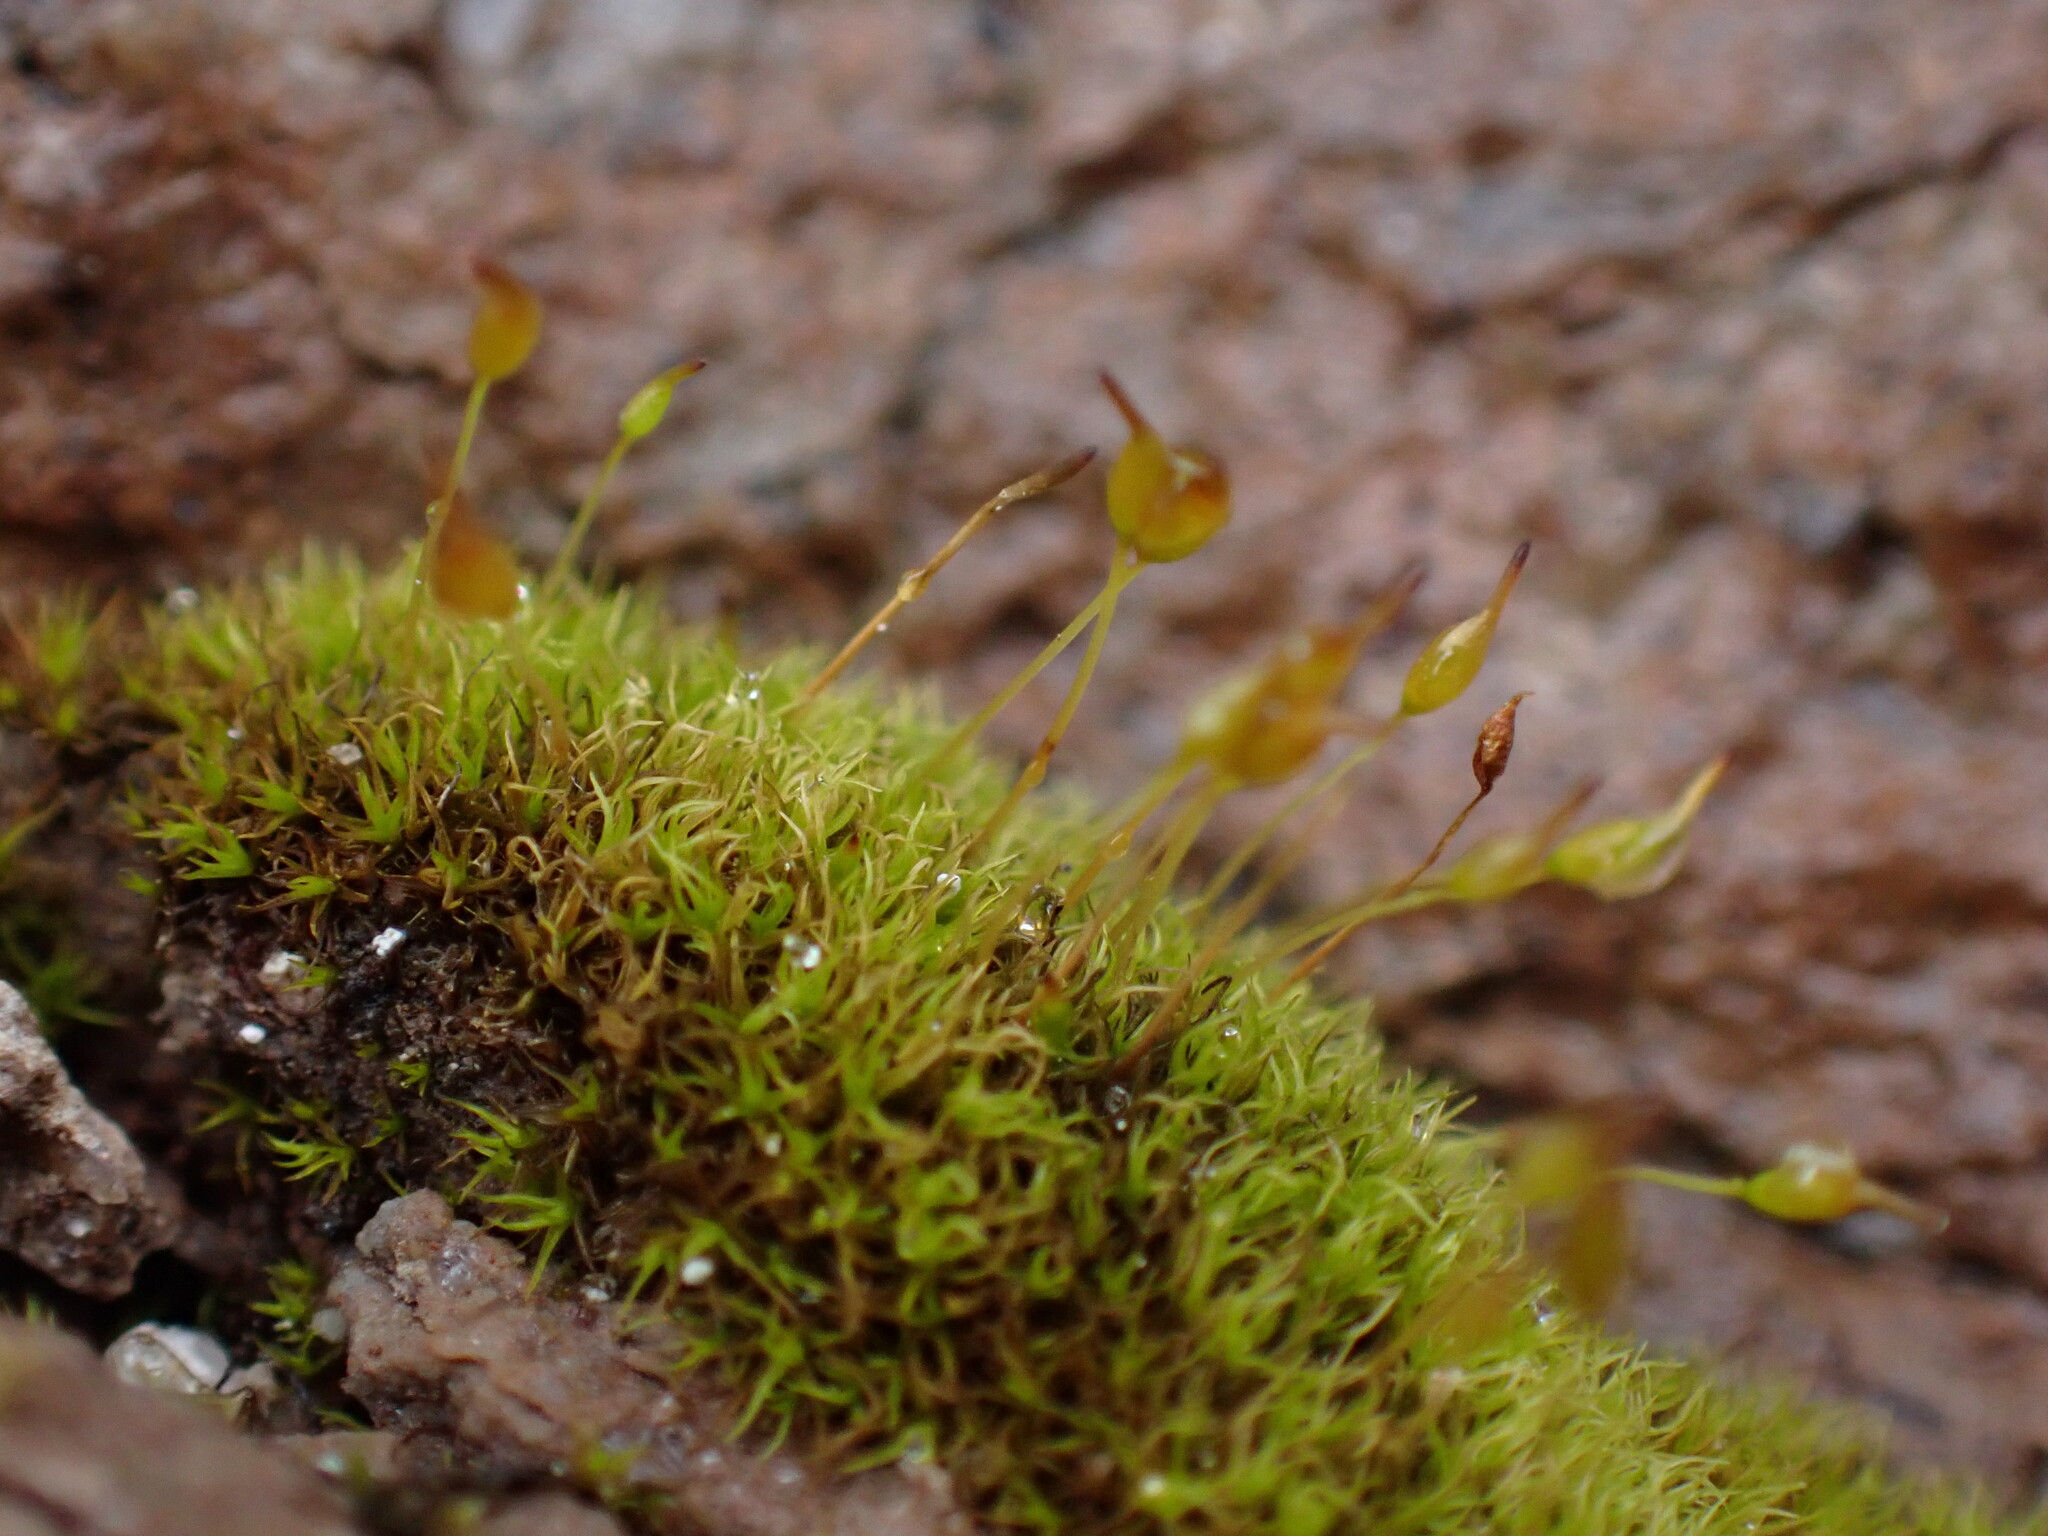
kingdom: Plantae
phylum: Bryophyta
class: Bryopsida
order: Scouleriales
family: Hymenolomataceae
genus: Hymenoloma
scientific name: Hymenoloma crispulum
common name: Mountain pincushion
